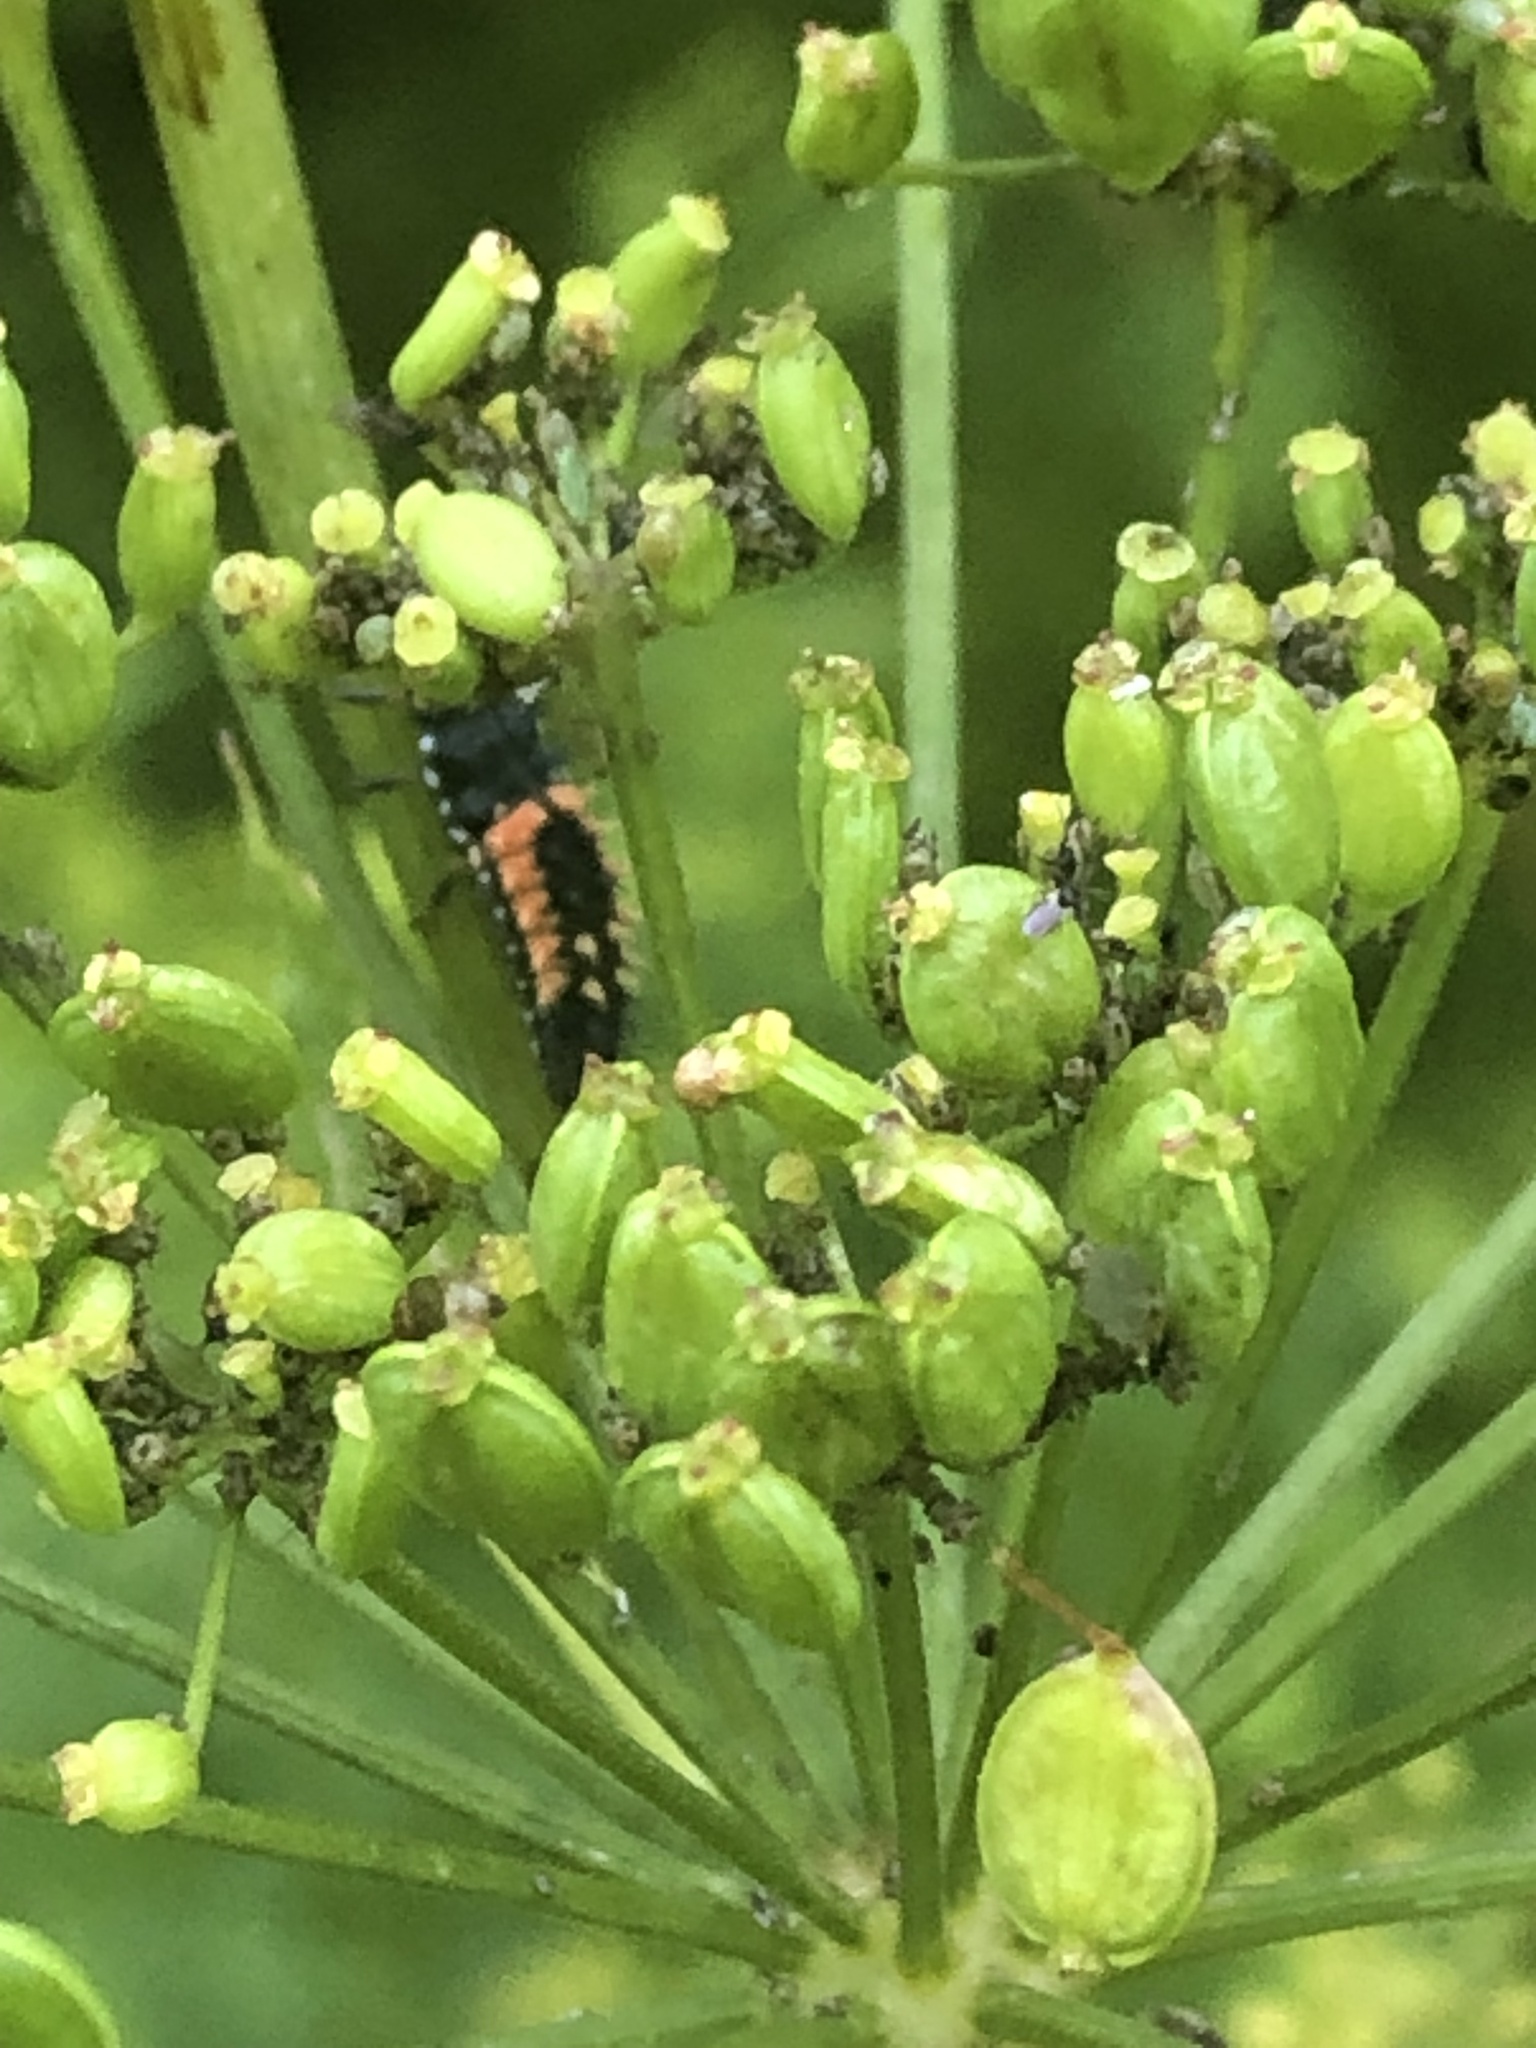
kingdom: Animalia
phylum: Arthropoda
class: Insecta
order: Coleoptera
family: Coccinellidae
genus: Harmonia
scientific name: Harmonia axyridis
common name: Harlequin ladybird
